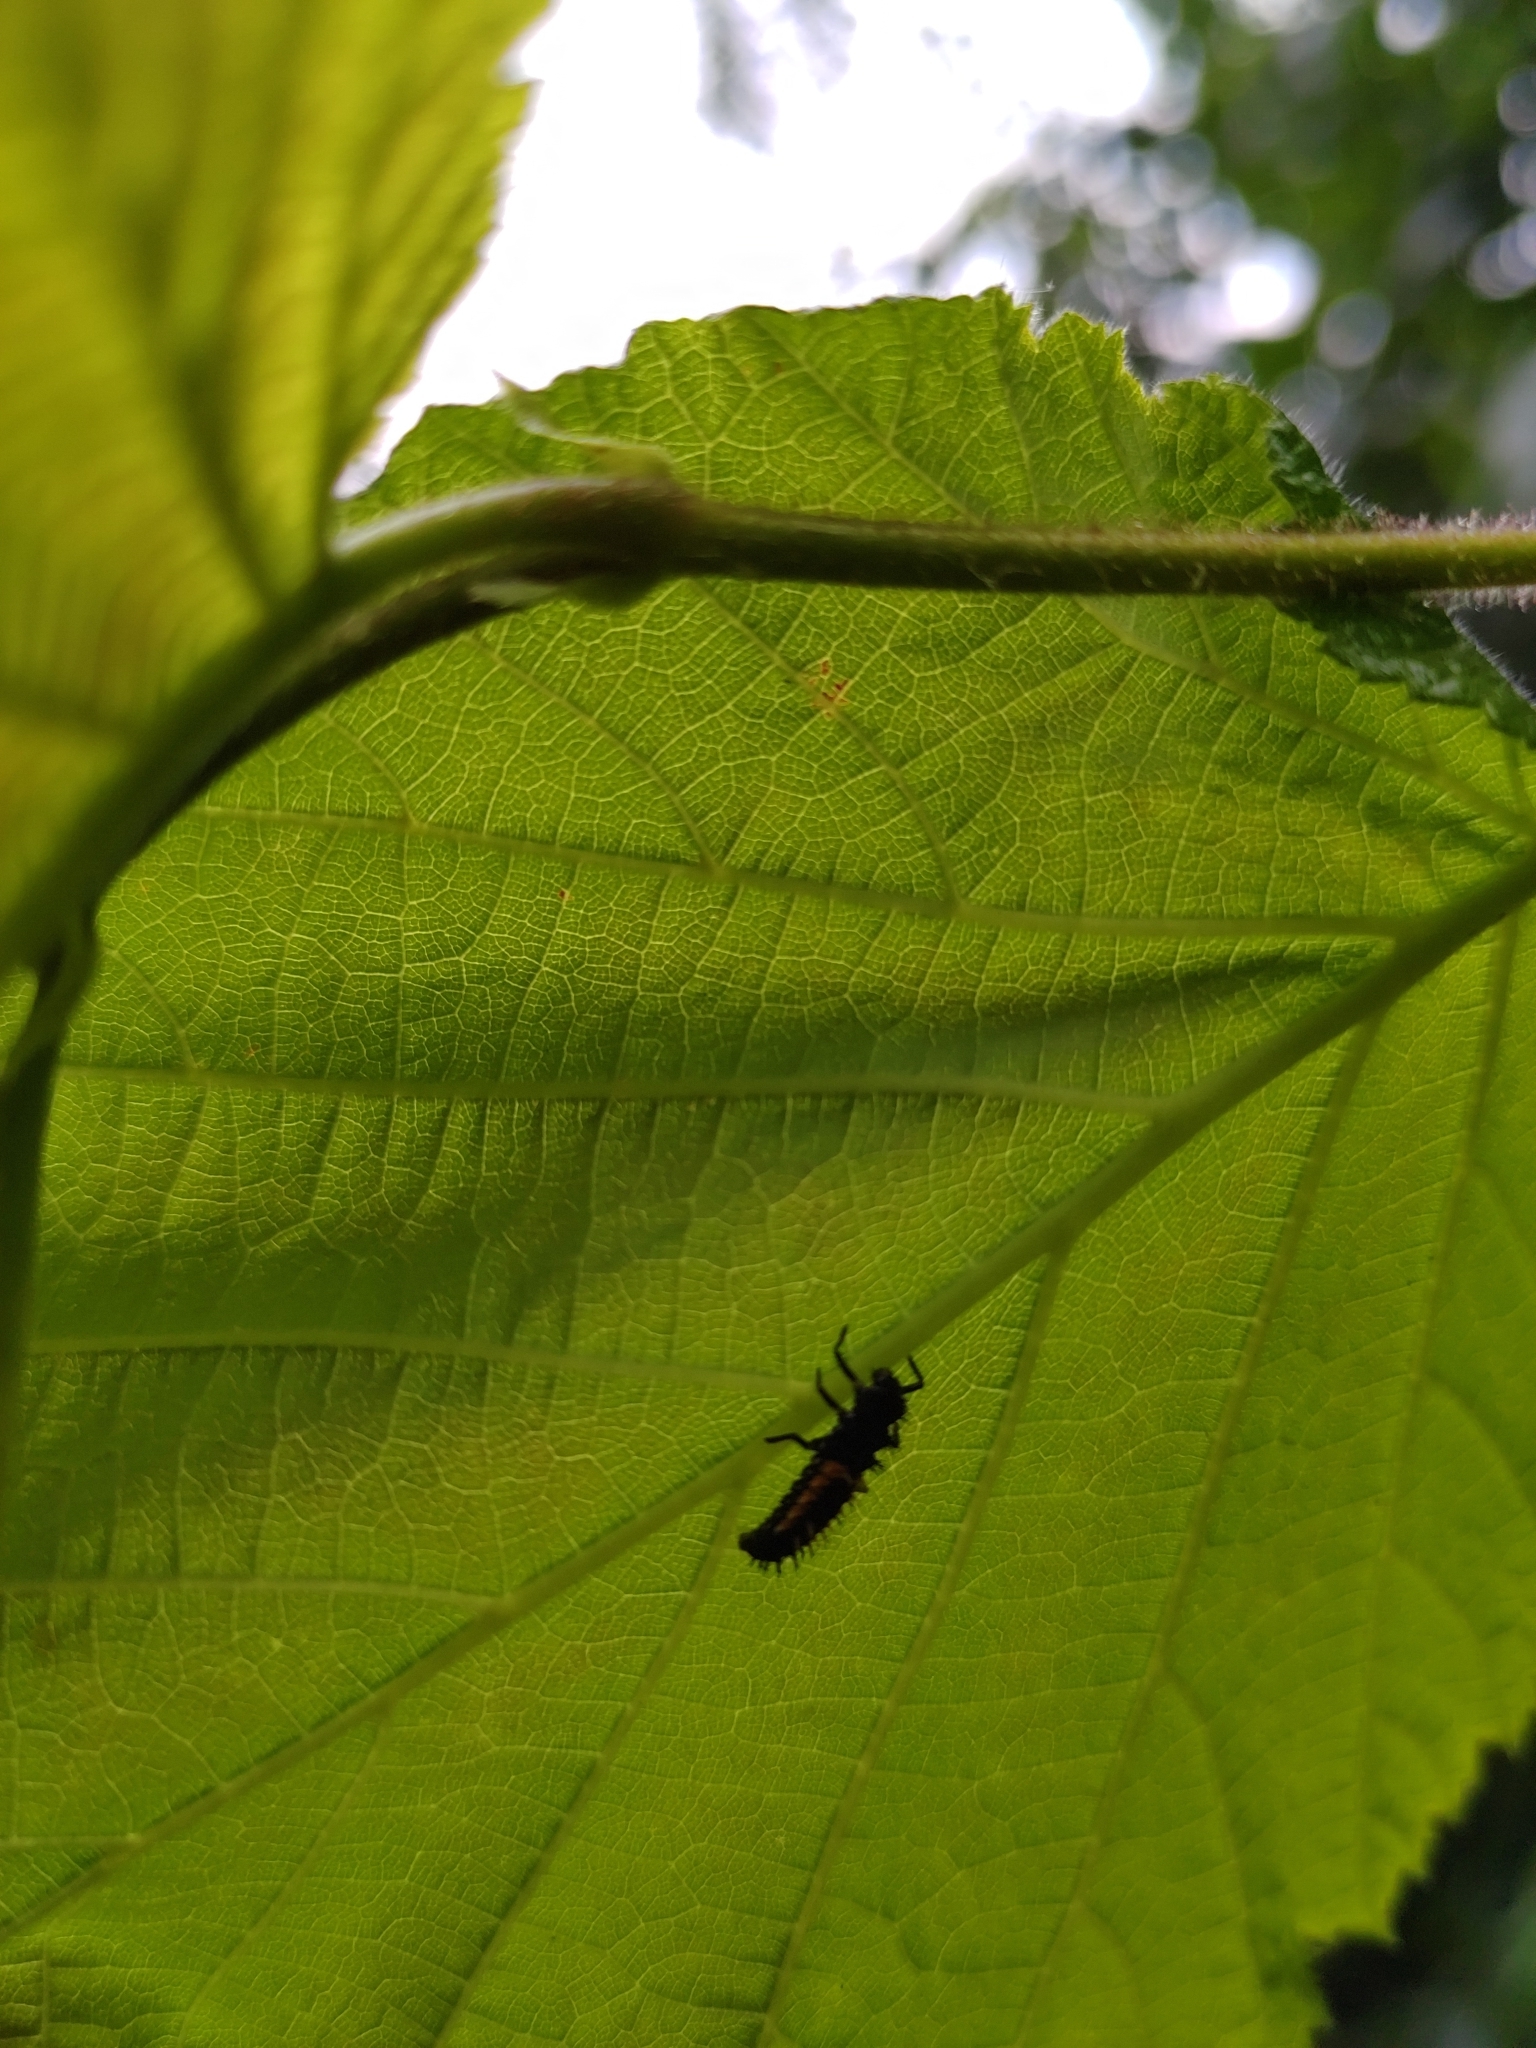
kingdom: Animalia
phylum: Arthropoda
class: Insecta
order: Coleoptera
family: Coccinellidae
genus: Harmonia
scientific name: Harmonia axyridis
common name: Harlequin ladybird
